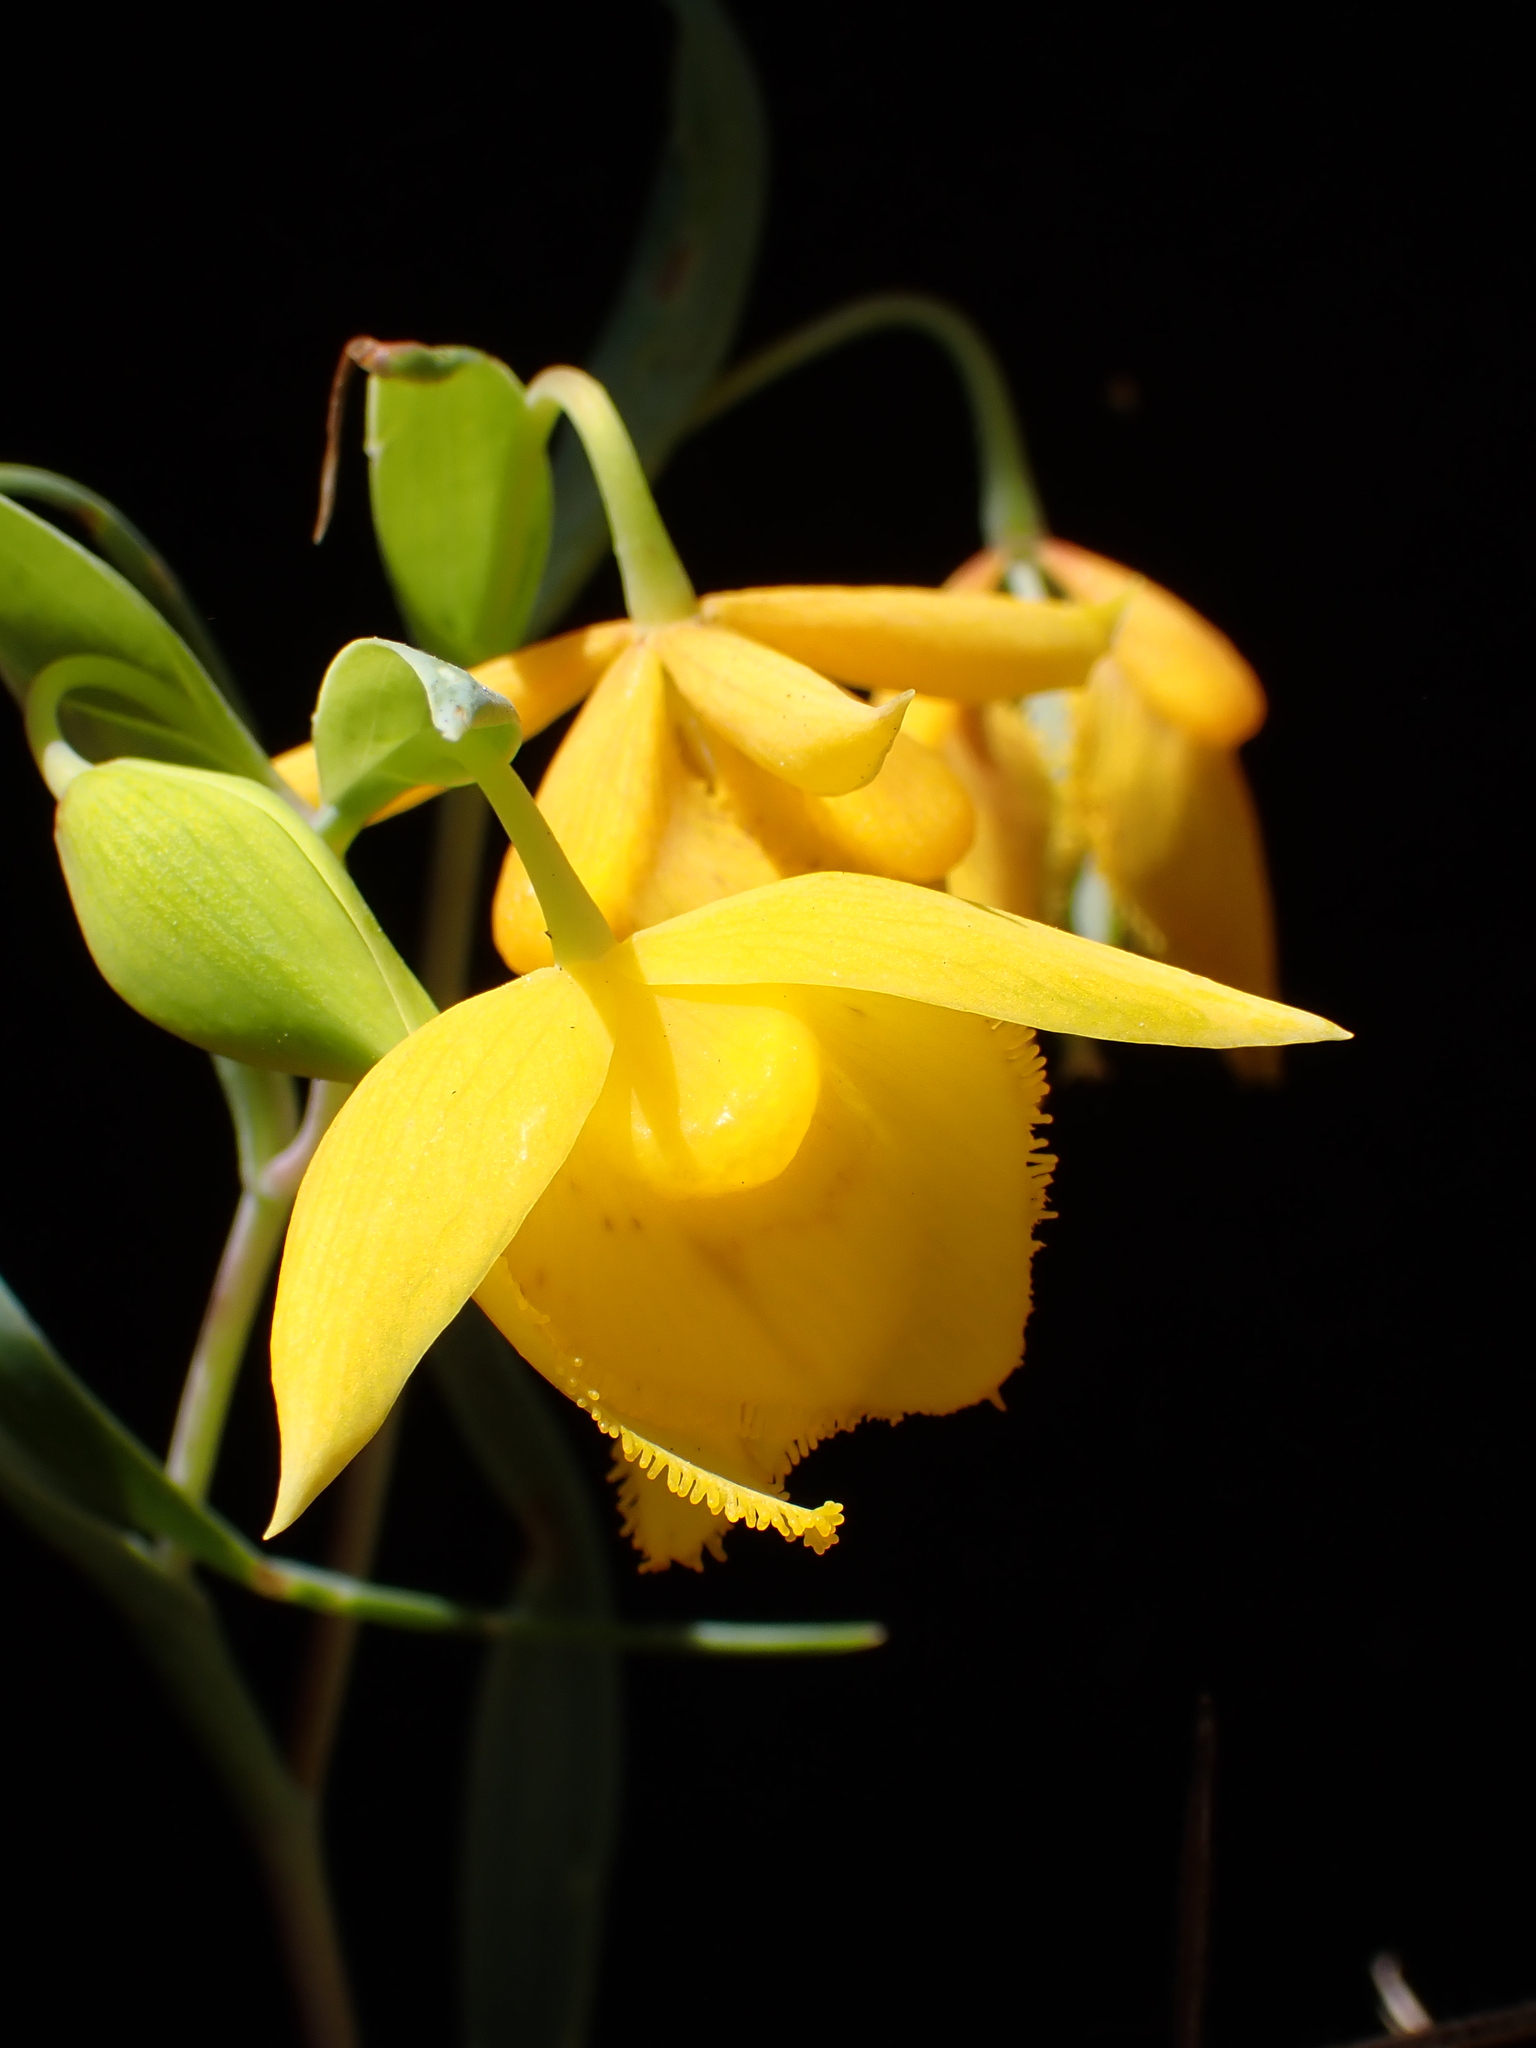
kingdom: Plantae
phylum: Tracheophyta
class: Liliopsida
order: Liliales
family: Liliaceae
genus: Calochortus
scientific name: Calochortus amabilis
